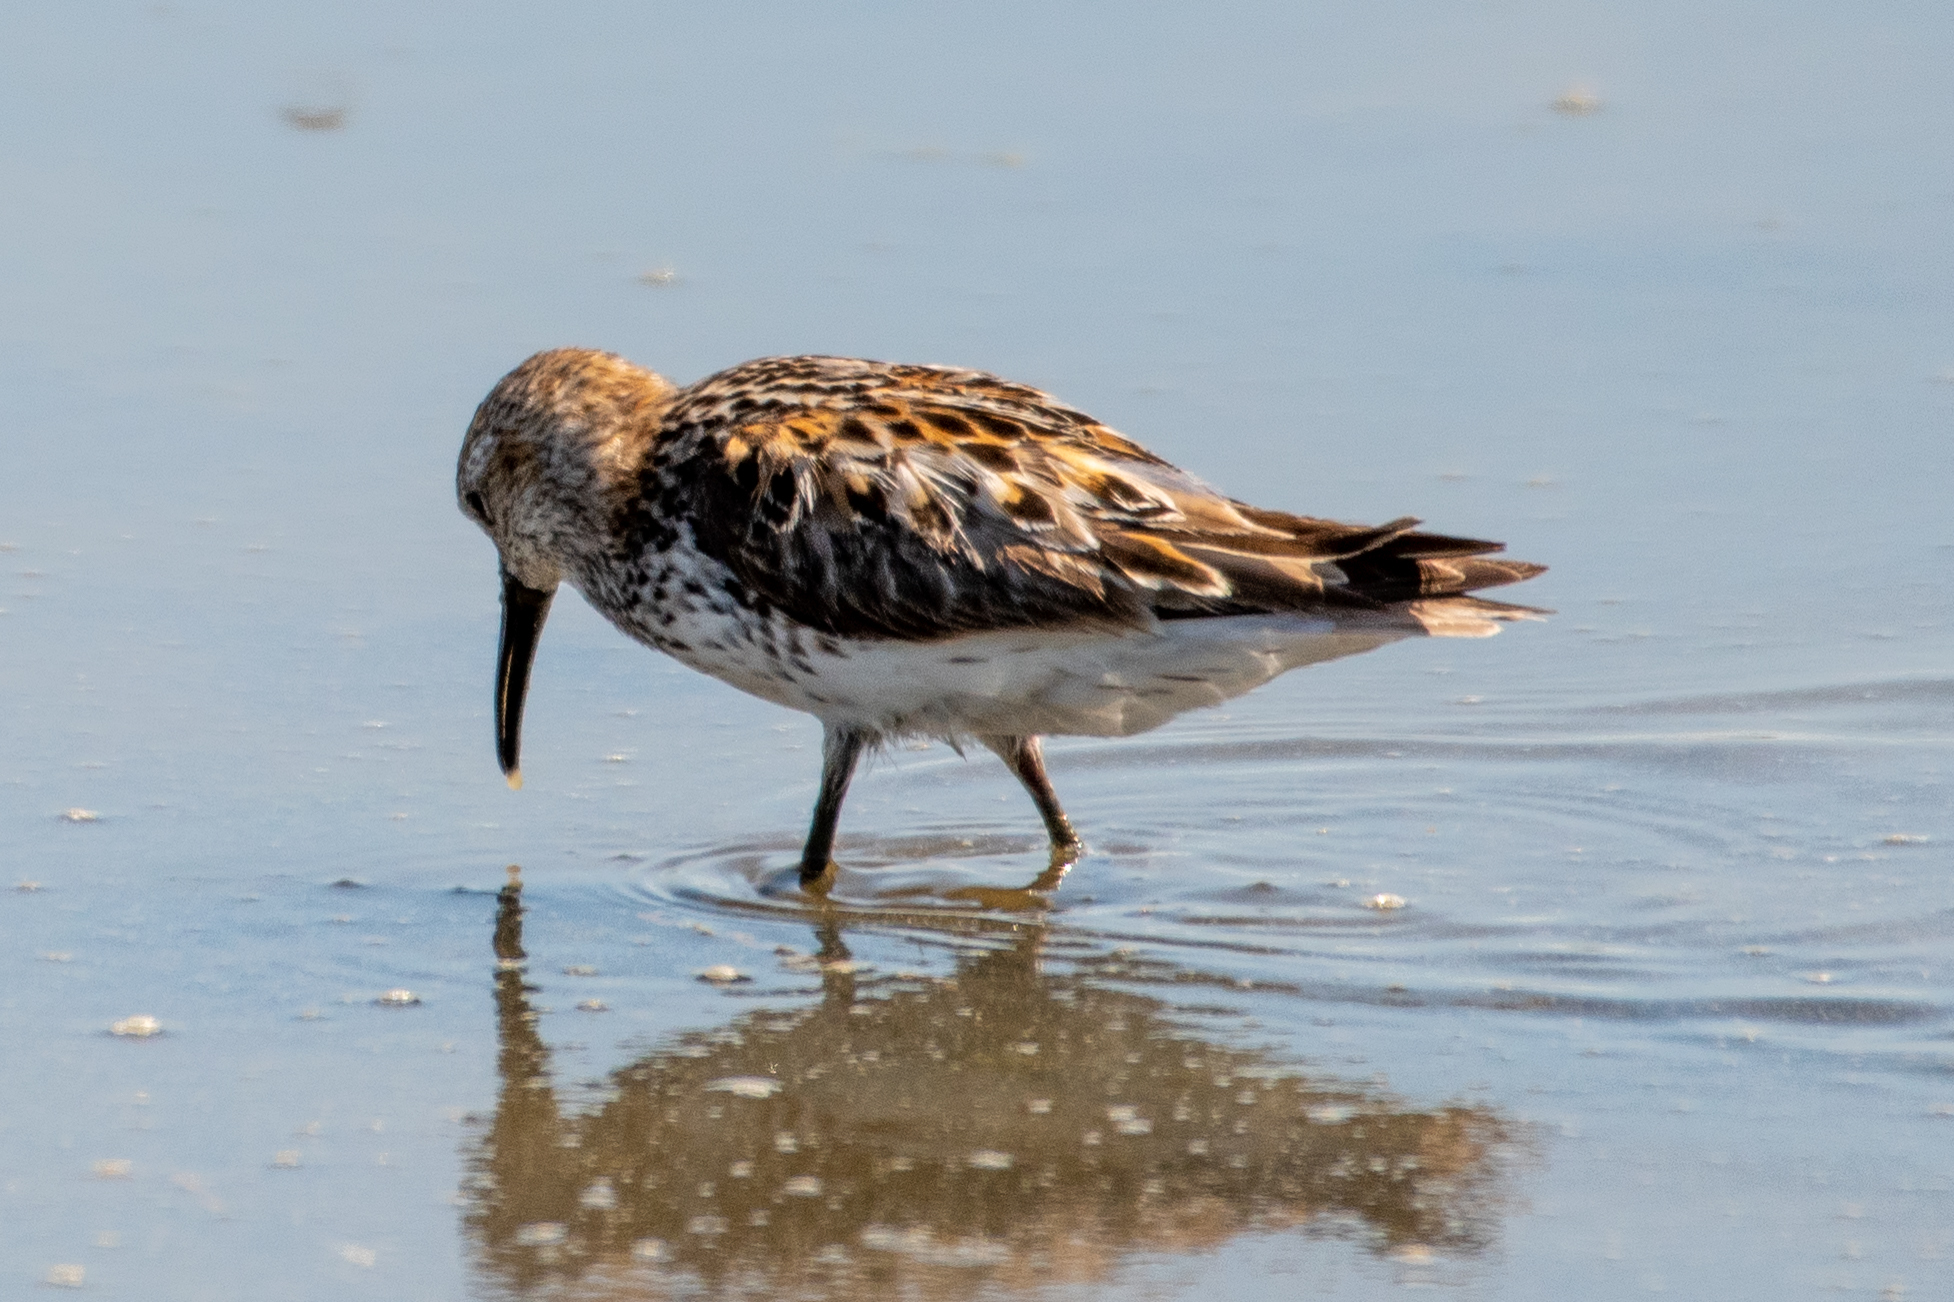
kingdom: Animalia
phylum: Chordata
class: Aves
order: Charadriiformes
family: Scolopacidae
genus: Calidris
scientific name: Calidris mauri
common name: Western sandpiper
